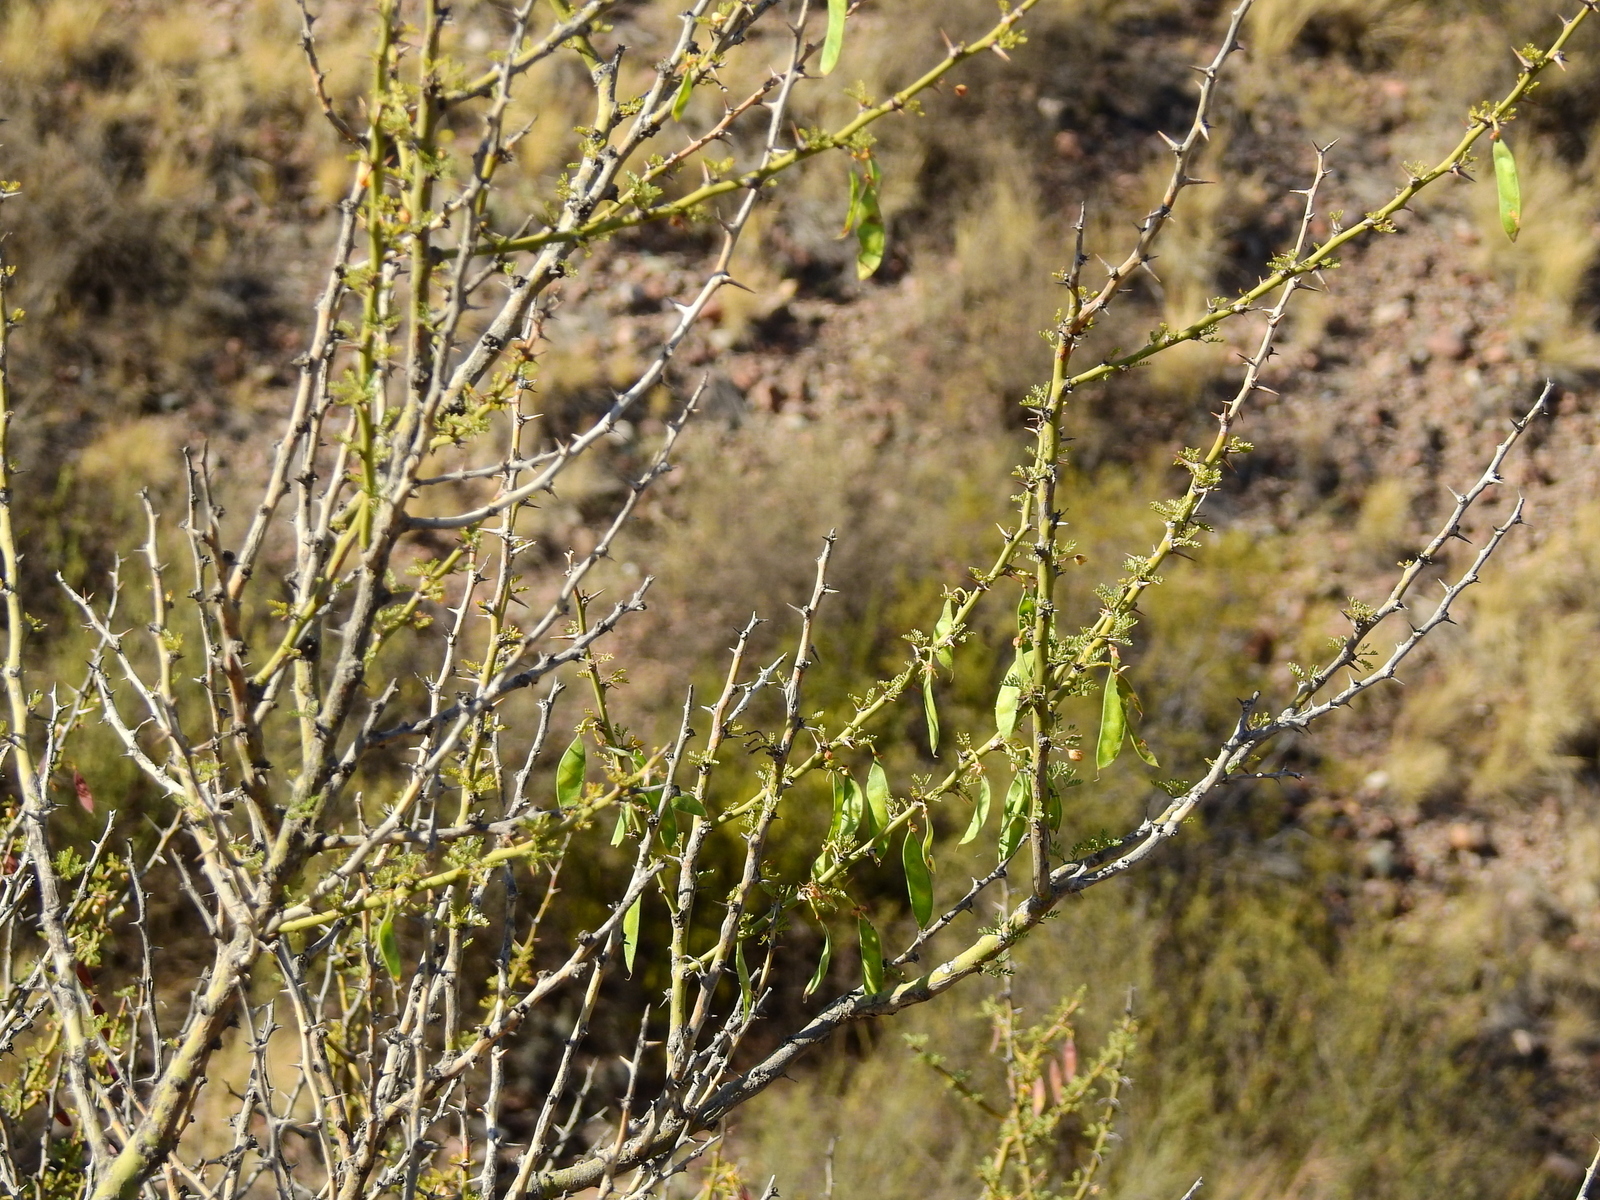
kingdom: Plantae
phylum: Tracheophyta
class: Magnoliopsida
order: Fabales
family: Fabaceae
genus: Parkinsonia
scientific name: Parkinsonia praecox
